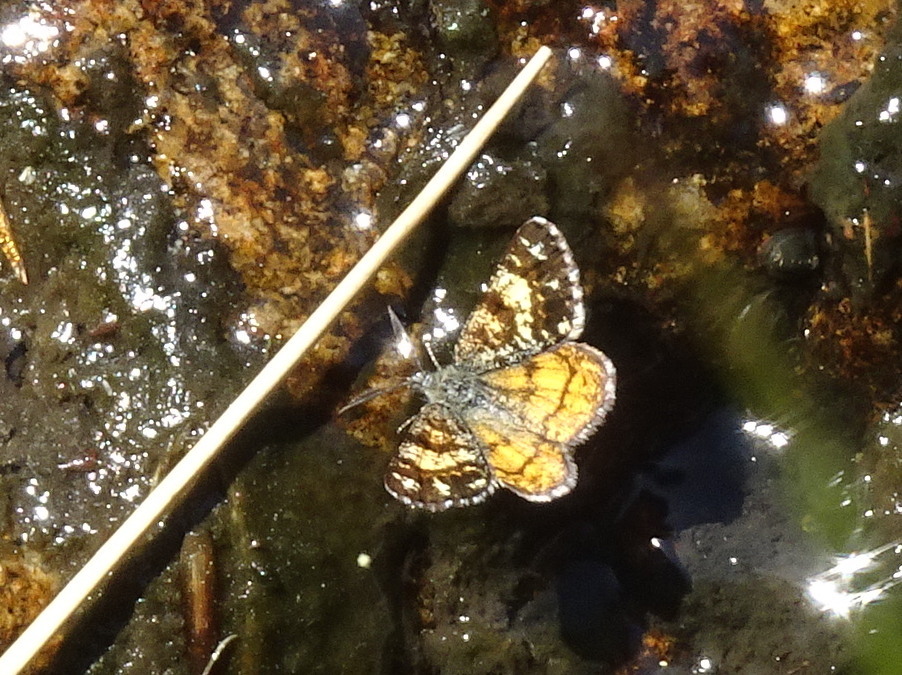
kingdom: Animalia
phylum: Arthropoda
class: Insecta
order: Lepidoptera
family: Geometridae
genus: Isturgia
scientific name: Isturgia famula
